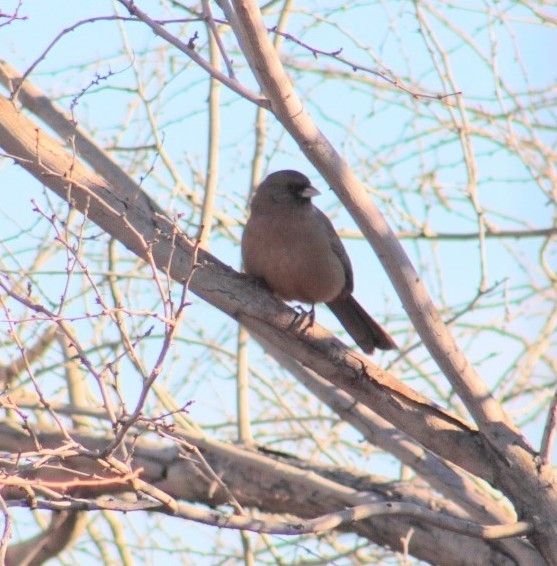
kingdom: Animalia
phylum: Chordata
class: Aves
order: Passeriformes
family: Passerellidae
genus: Melozone
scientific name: Melozone aberti
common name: Abert's towhee
